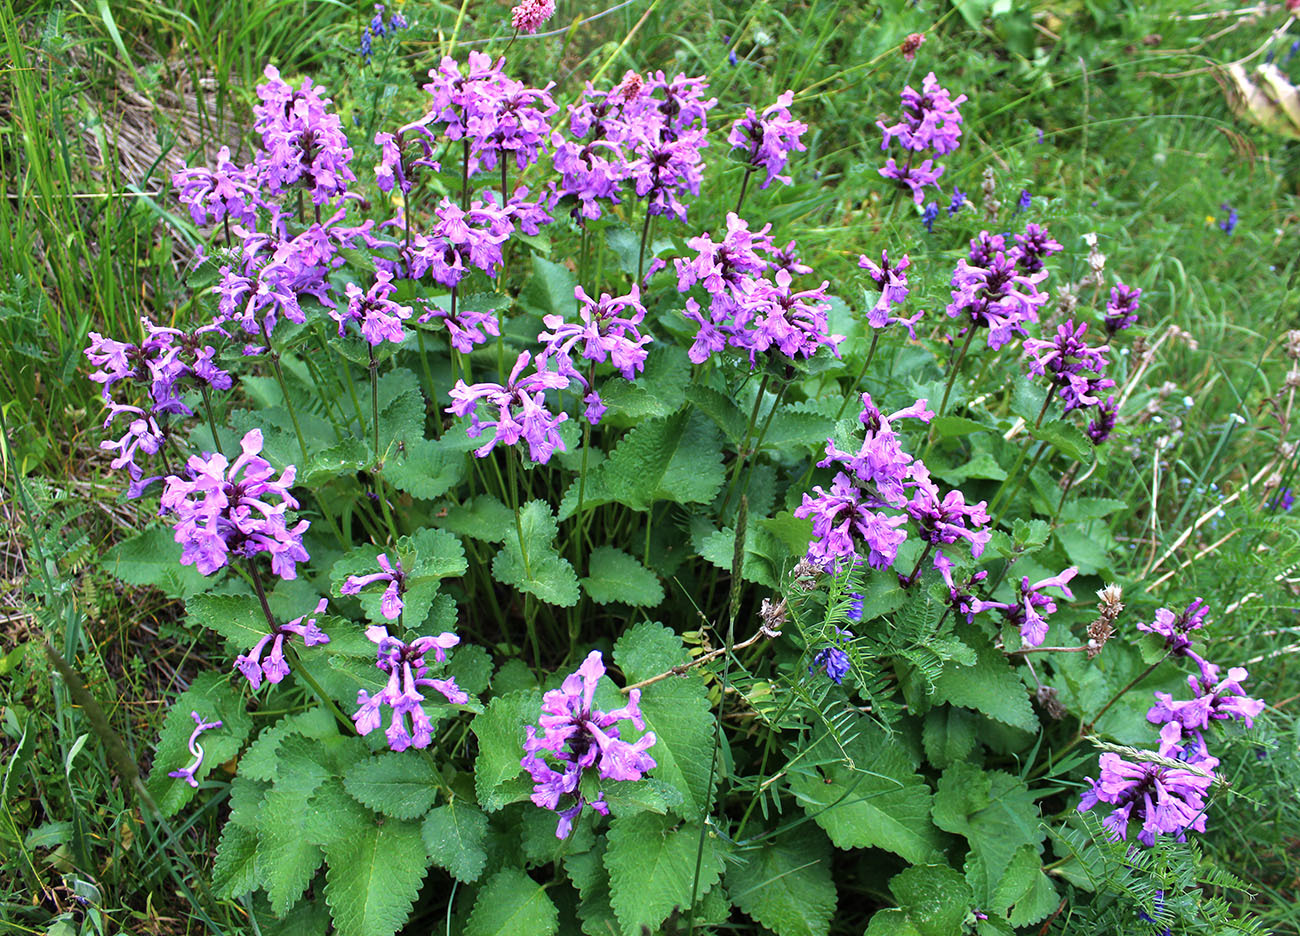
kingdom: Plantae
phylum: Tracheophyta
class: Magnoliopsida
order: Lamiales
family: Lamiaceae
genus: Betonica
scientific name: Betonica macrantha
